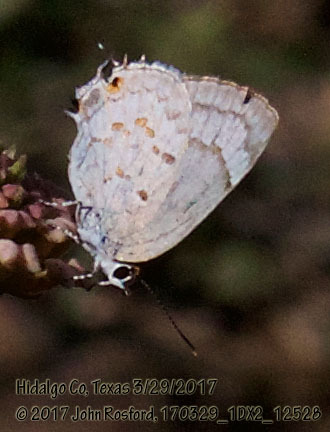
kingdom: Animalia
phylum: Arthropoda
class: Insecta
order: Lepidoptera
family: Lycaenidae
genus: Tmolus
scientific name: Tmolus echion
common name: Red-spotted hairstreak
